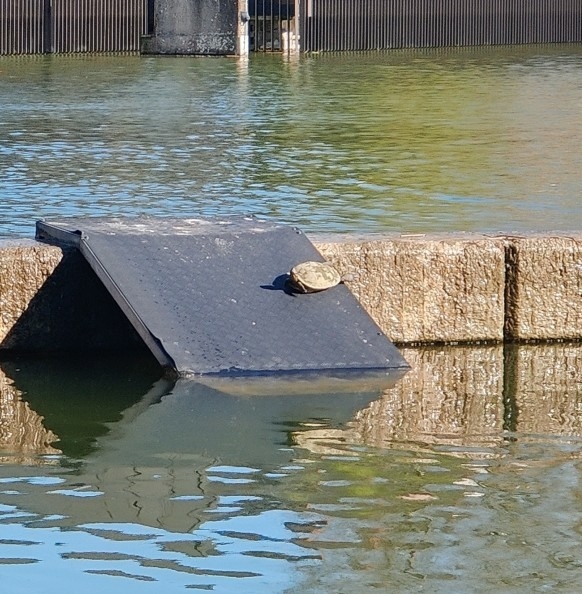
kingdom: Animalia
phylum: Chordata
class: Testudines
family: Emydidae
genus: Pseudemys
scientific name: Pseudemys concinna
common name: Eastern river cooter
